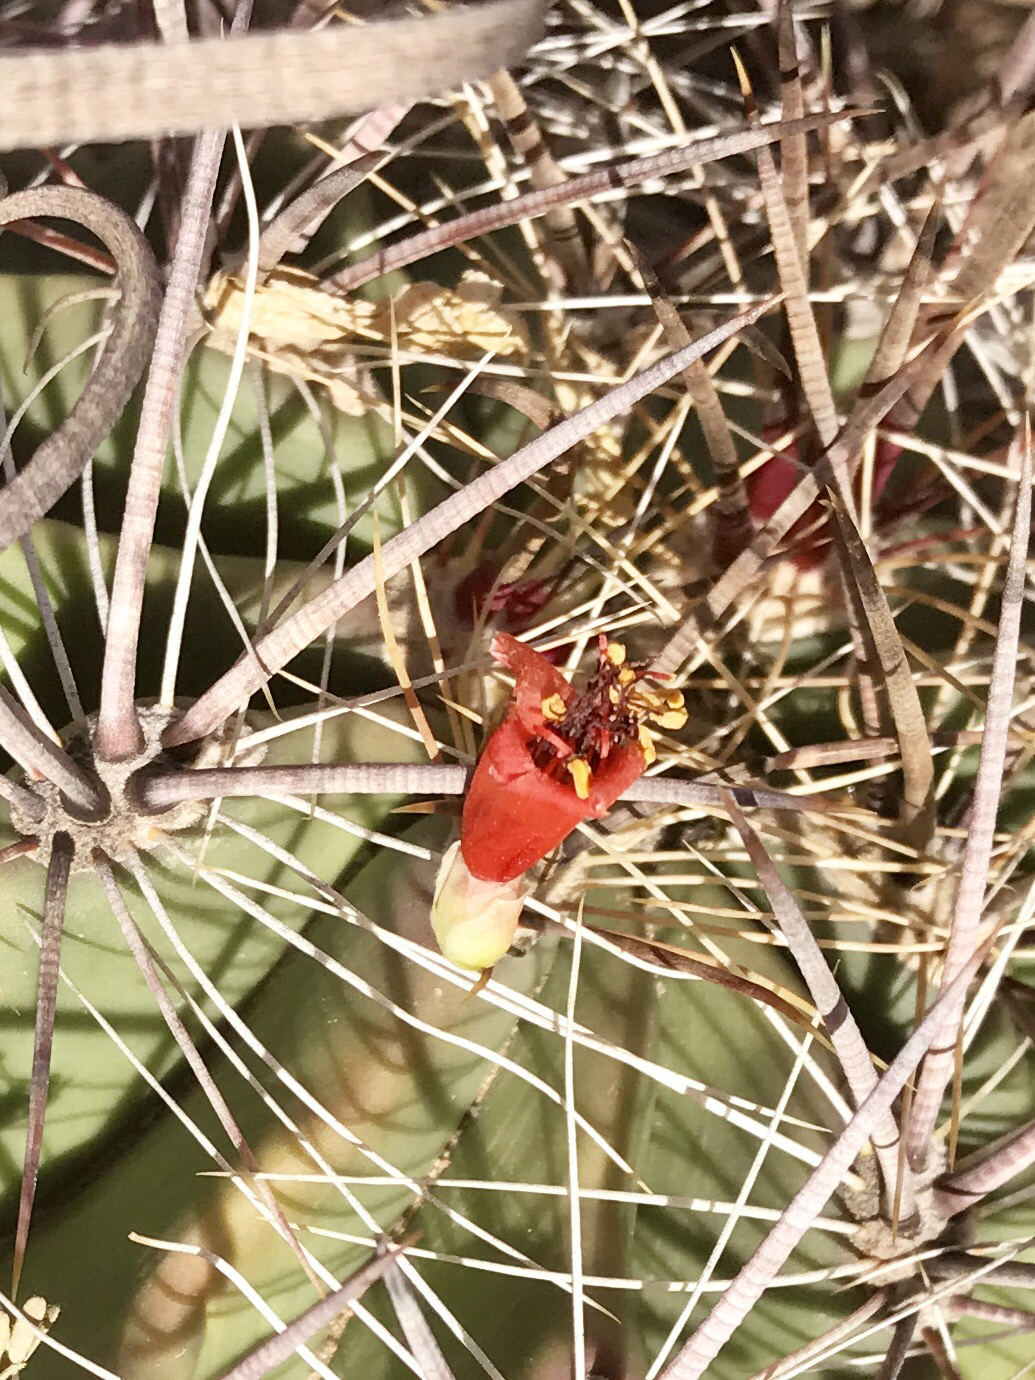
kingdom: Plantae
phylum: Tracheophyta
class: Magnoliopsida
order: Caryophyllales
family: Cactaceae
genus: Ferocactus
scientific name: Ferocactus wislizeni
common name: Candy barrel cactus
